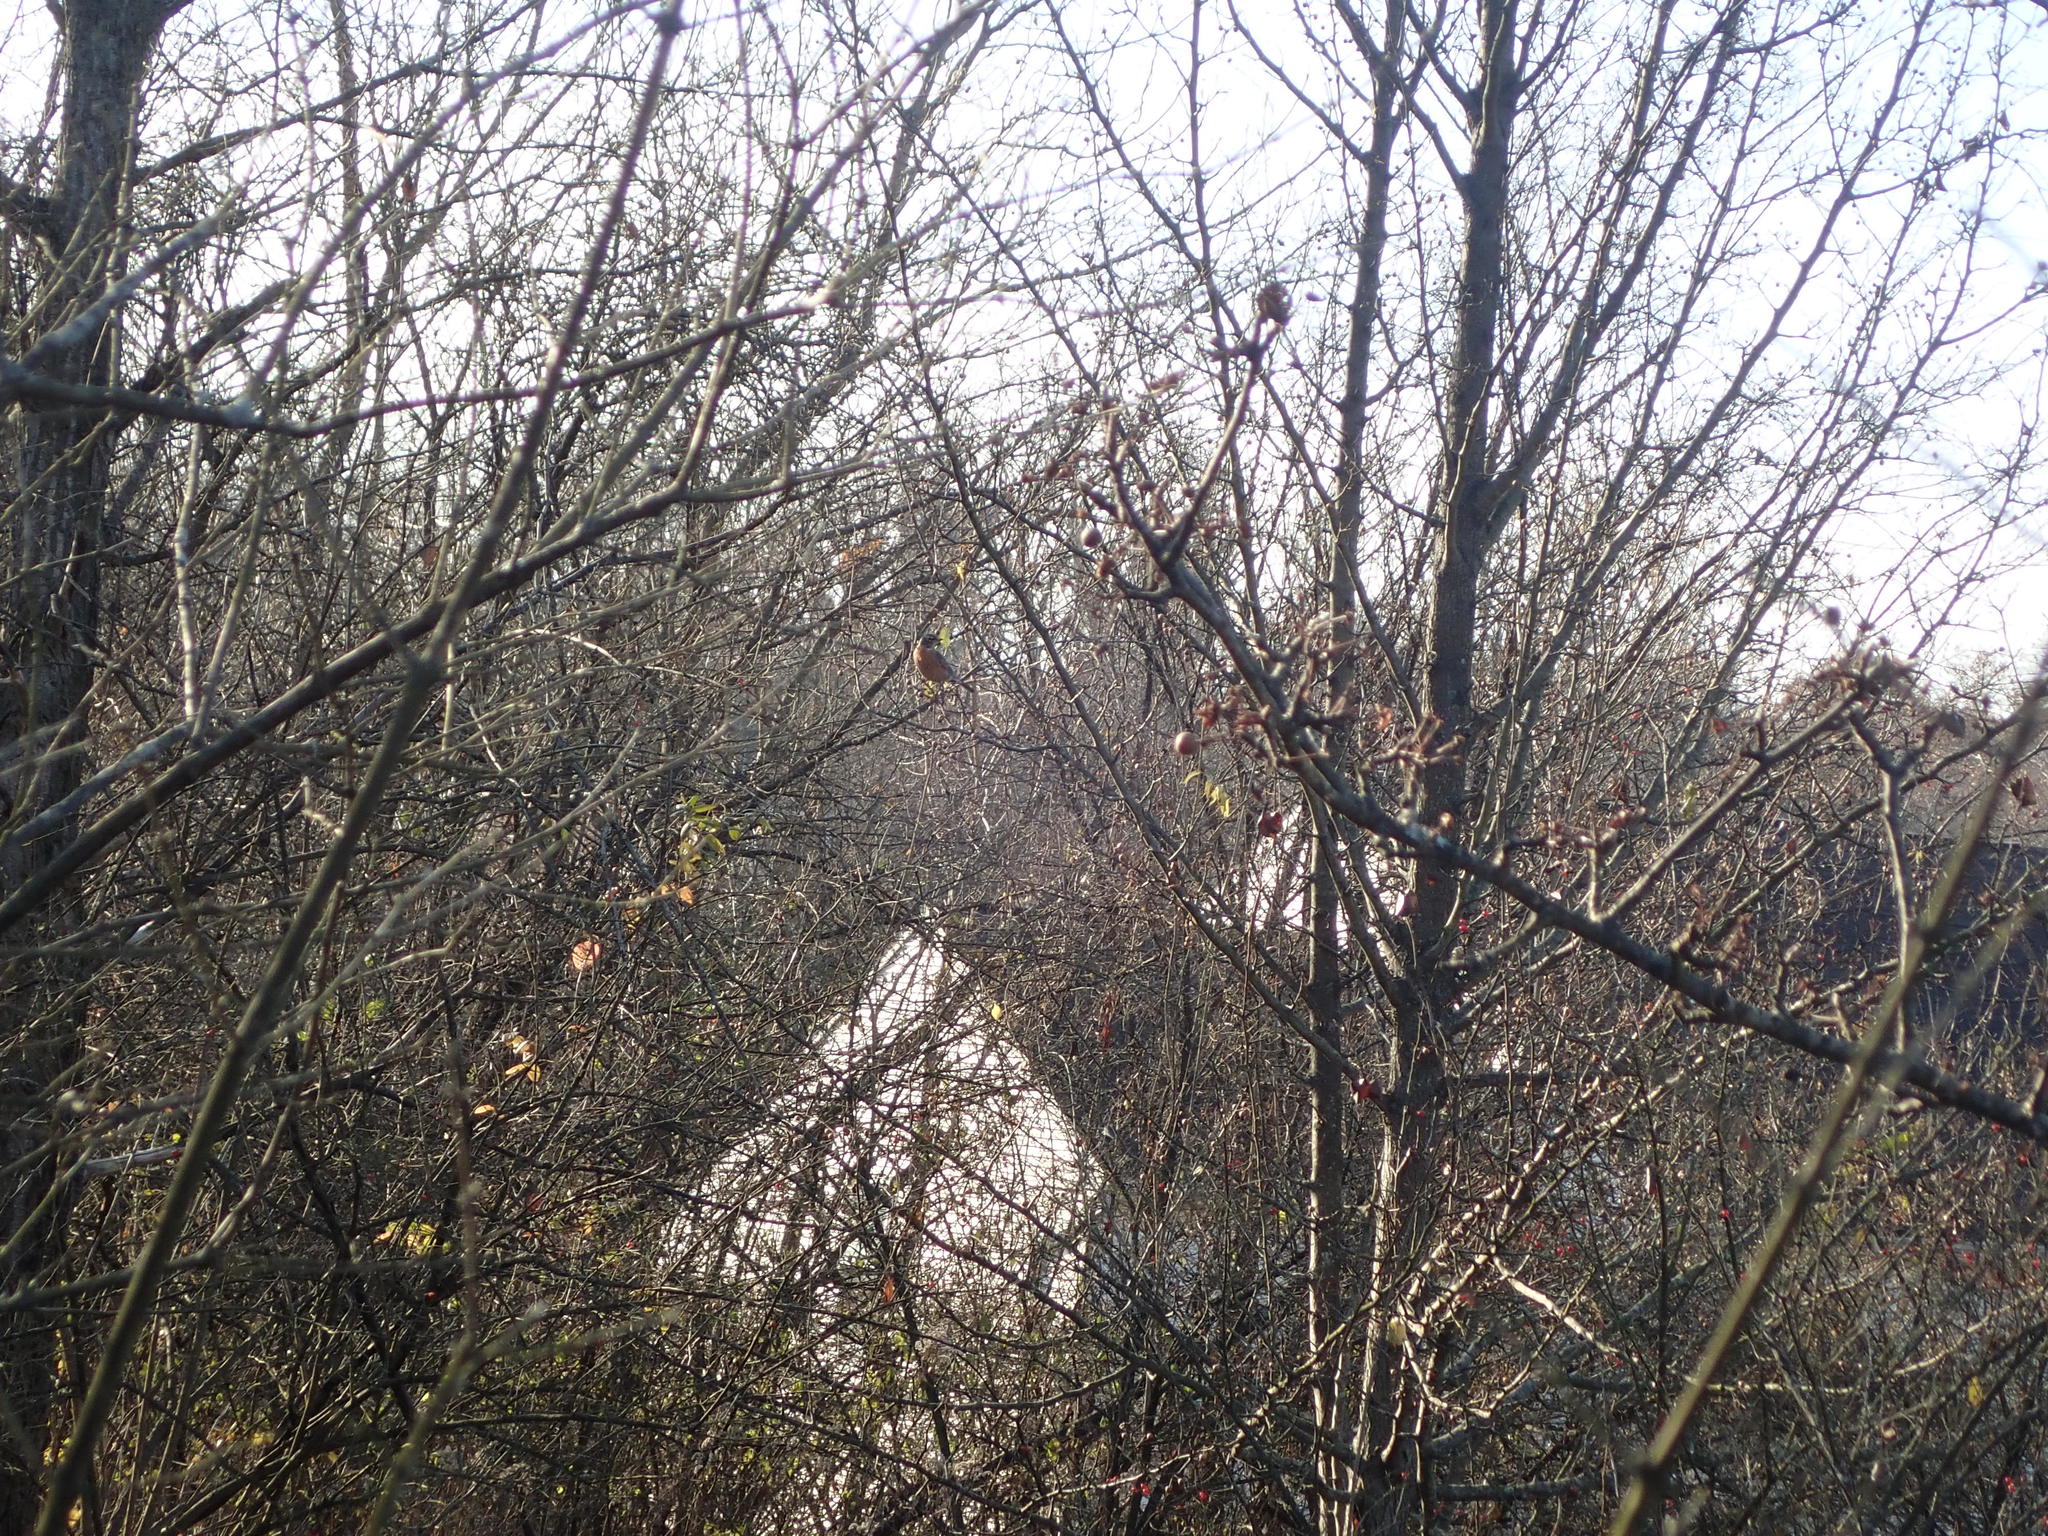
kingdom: Animalia
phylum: Chordata
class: Aves
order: Passeriformes
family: Turdidae
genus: Turdus
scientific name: Turdus migratorius
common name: American robin
